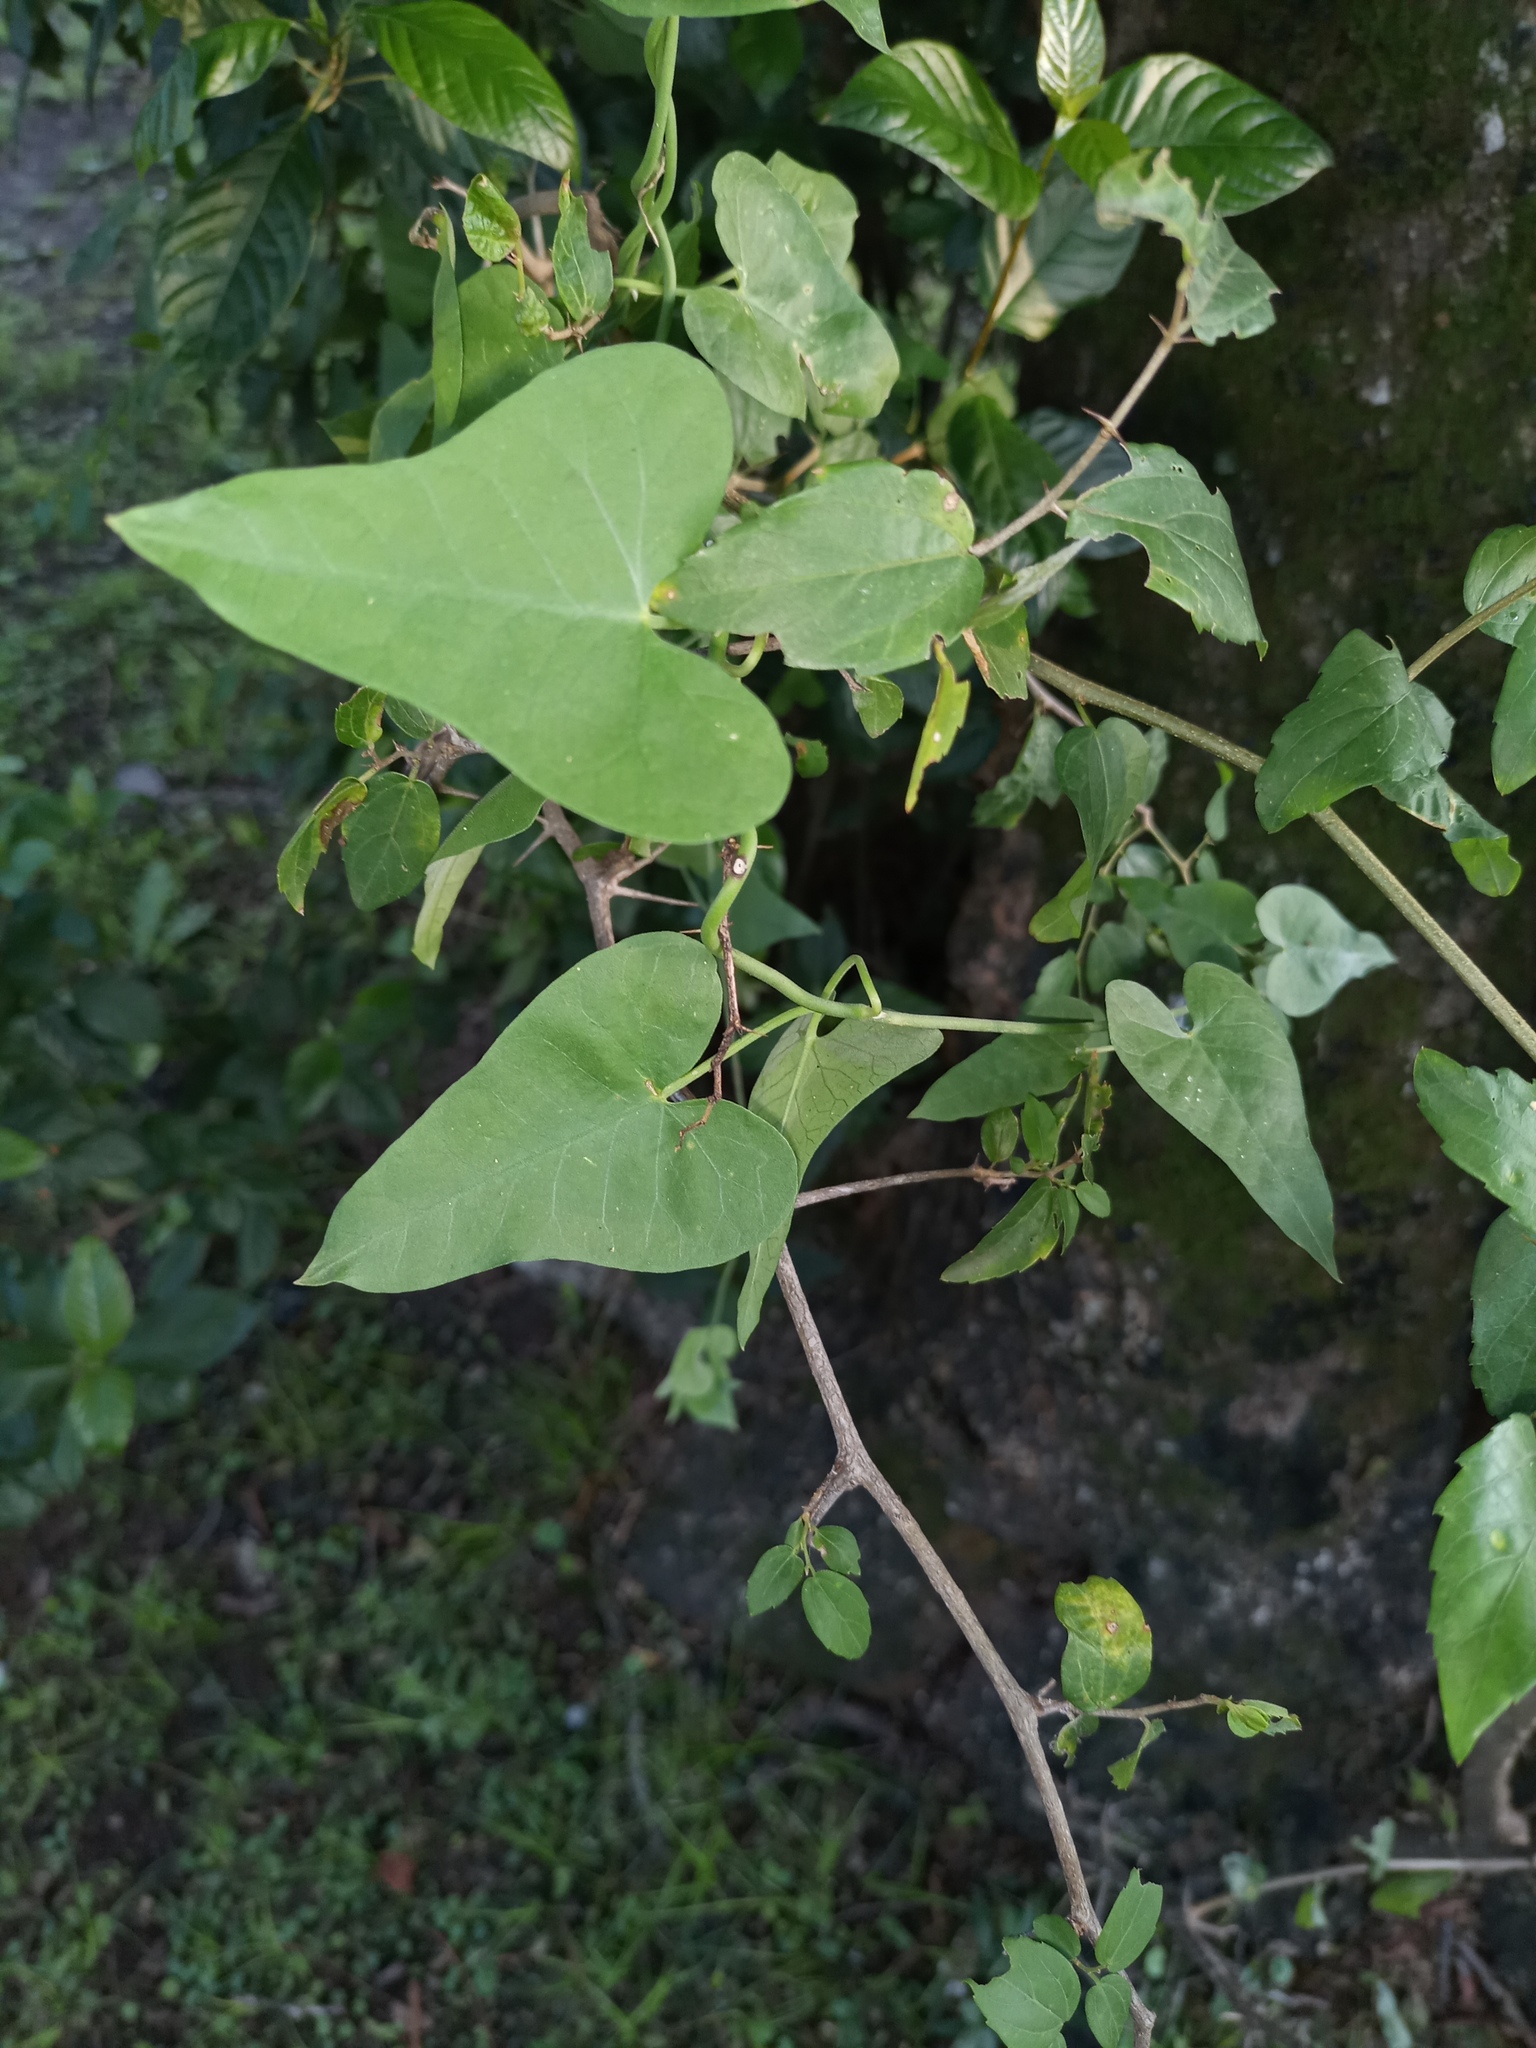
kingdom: Plantae
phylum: Tracheophyta
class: Magnoliopsida
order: Gentianales
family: Apocynaceae
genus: Araujia
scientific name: Araujia odorata
